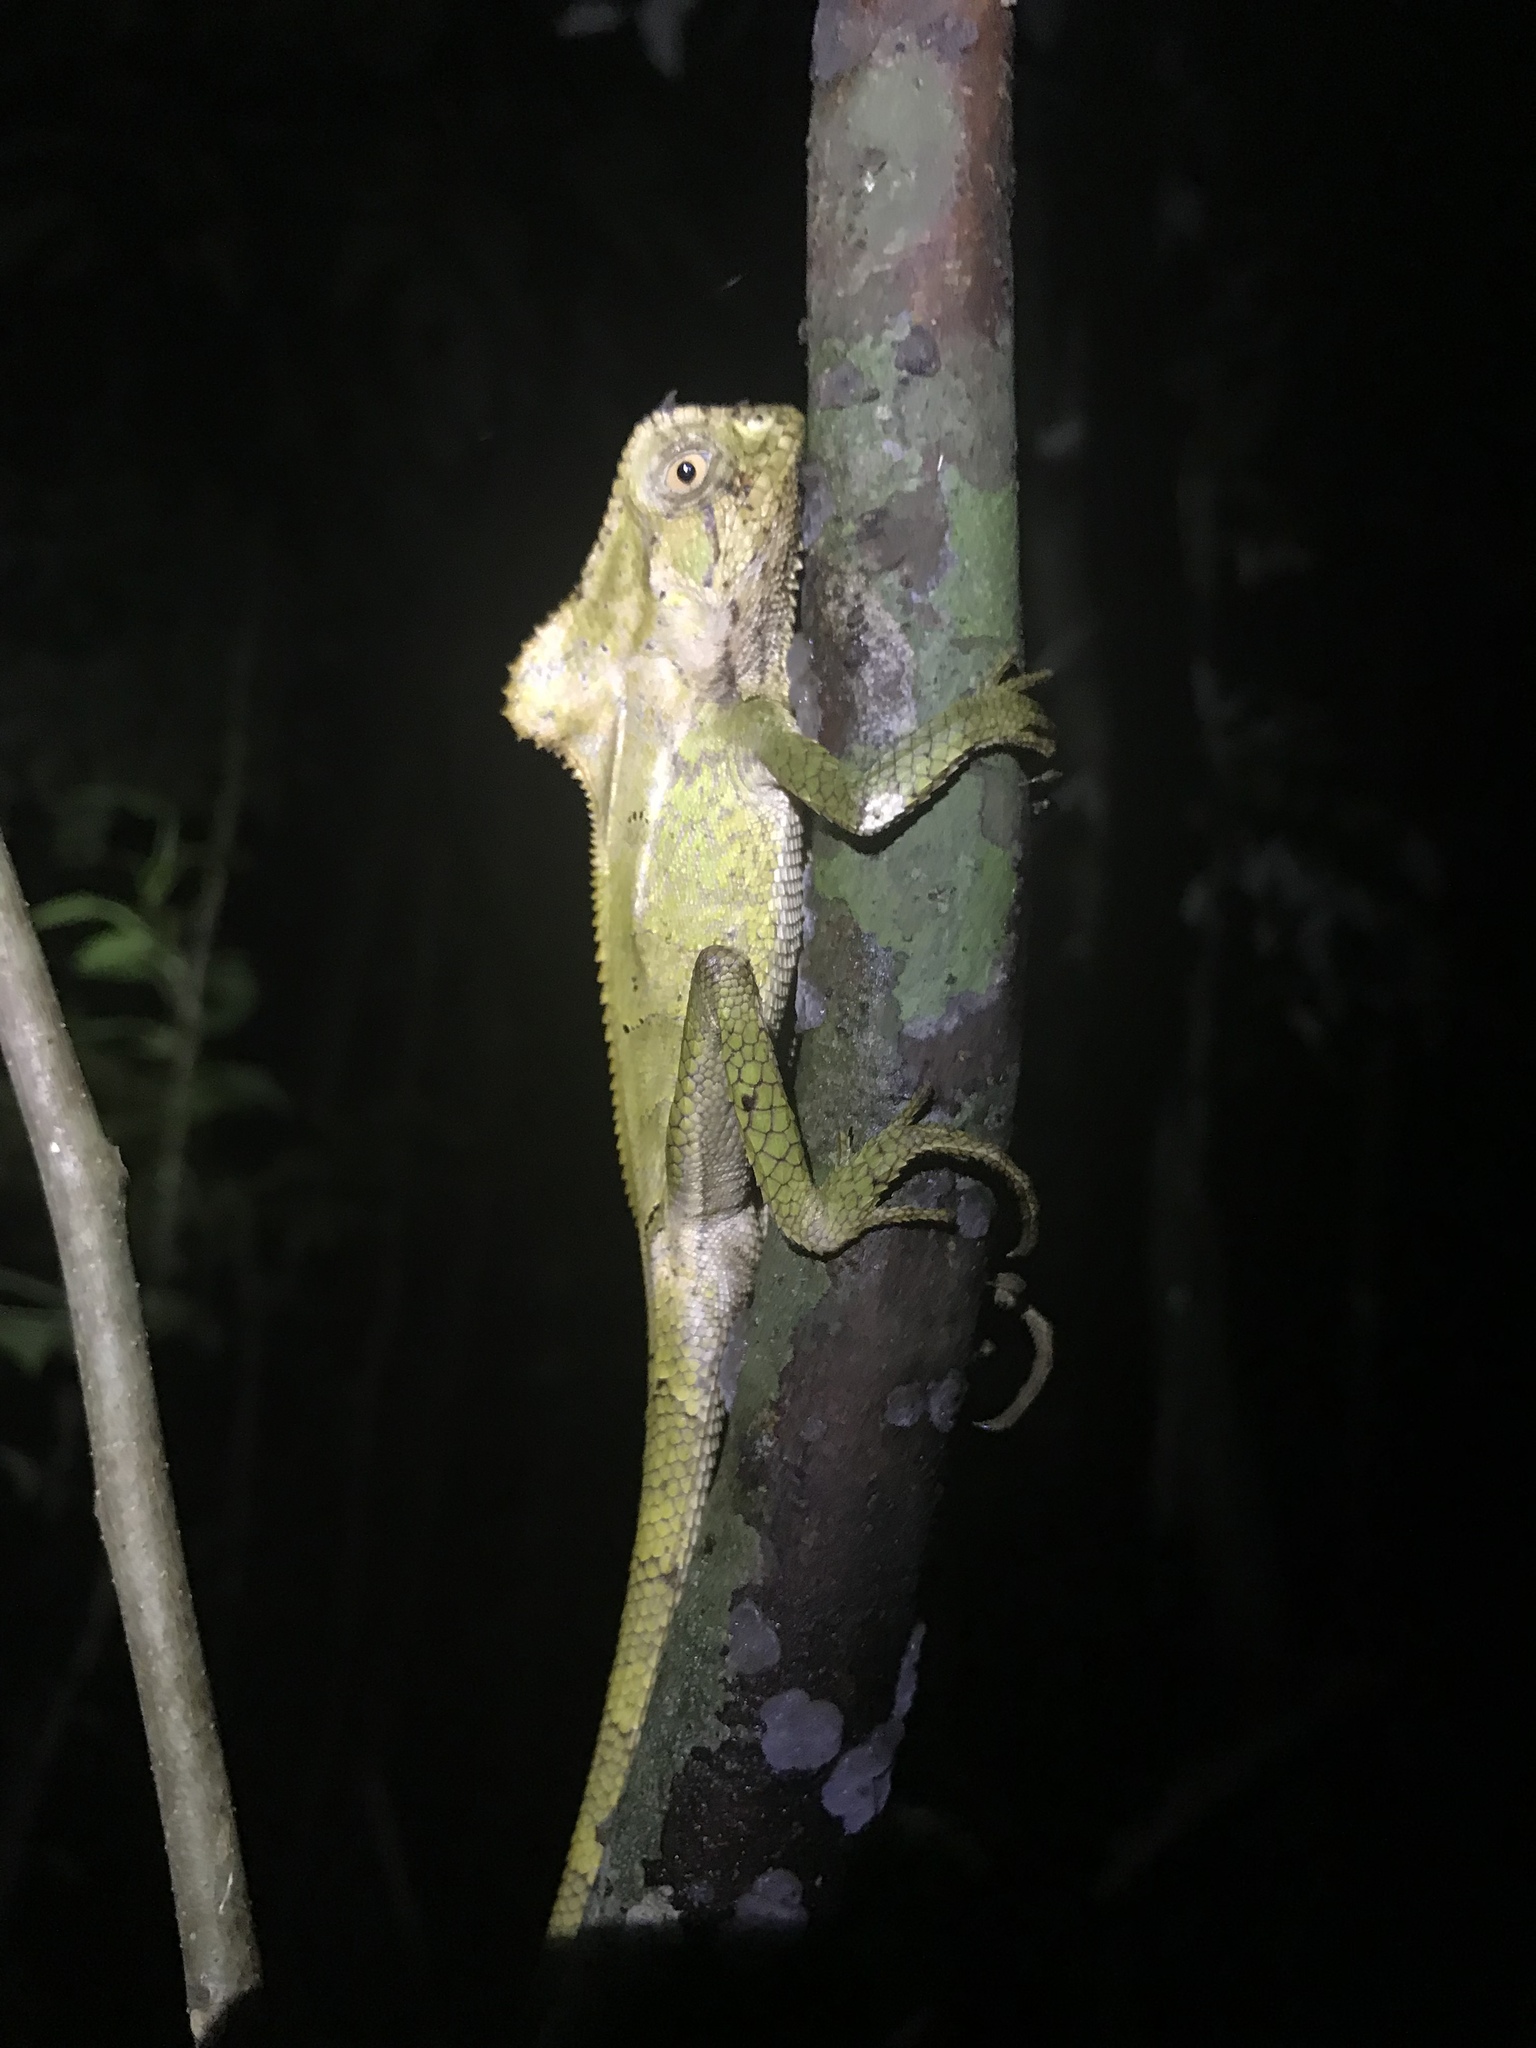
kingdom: Animalia
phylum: Chordata
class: Squamata
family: Corytophanidae
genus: Corytophanes
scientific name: Corytophanes cristatus
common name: Smooth helmeted iguana
